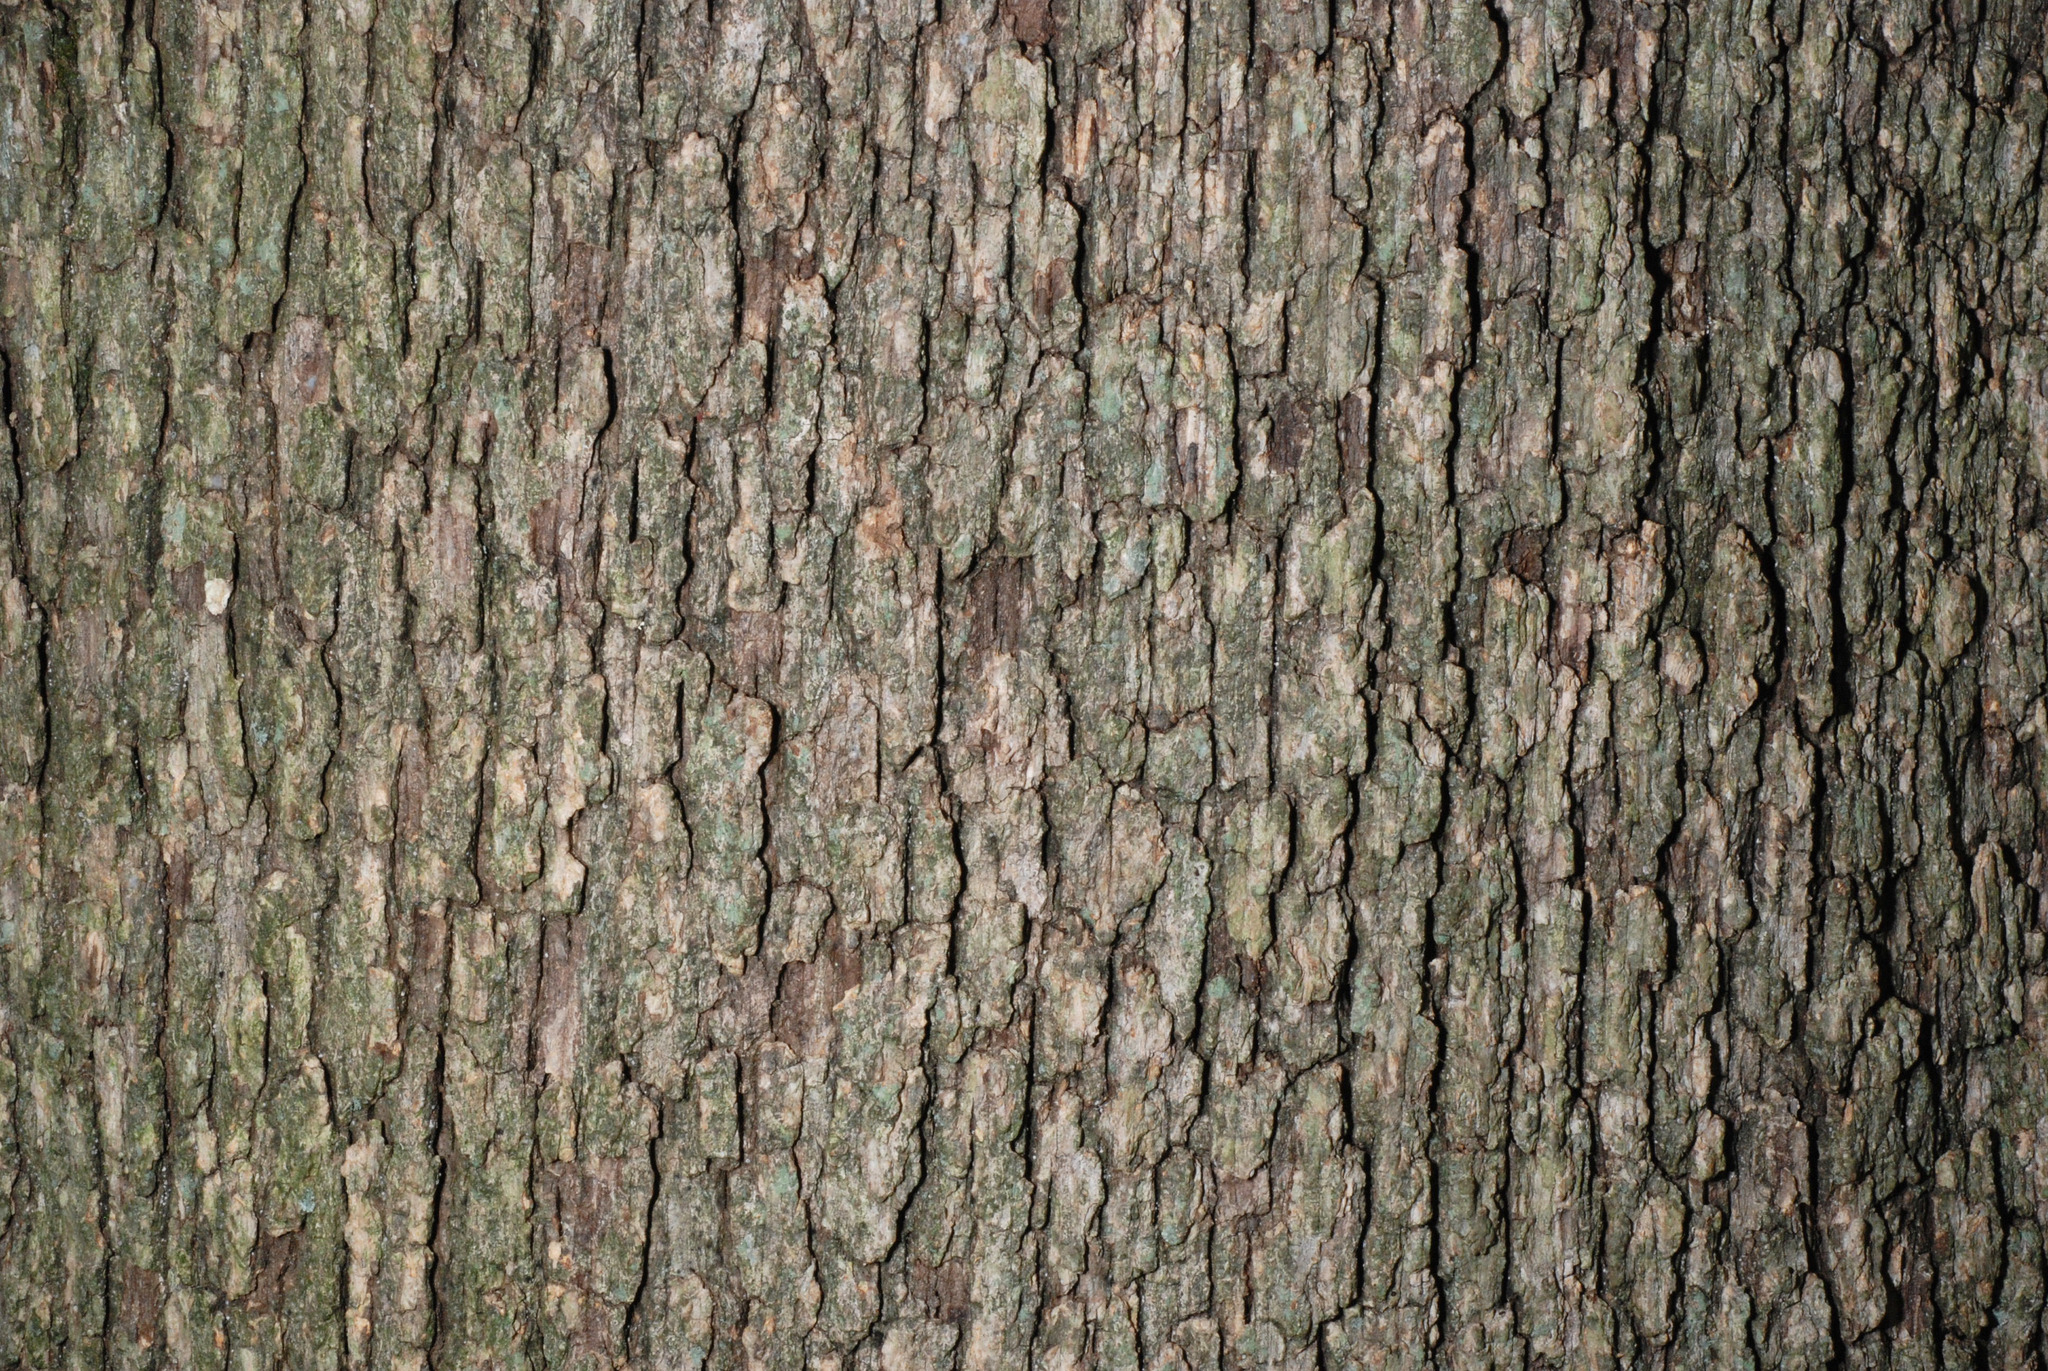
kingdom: Plantae
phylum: Tracheophyta
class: Magnoliopsida
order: Fagales
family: Fagaceae
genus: Quercus
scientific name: Quercus stellata
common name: Post oak
